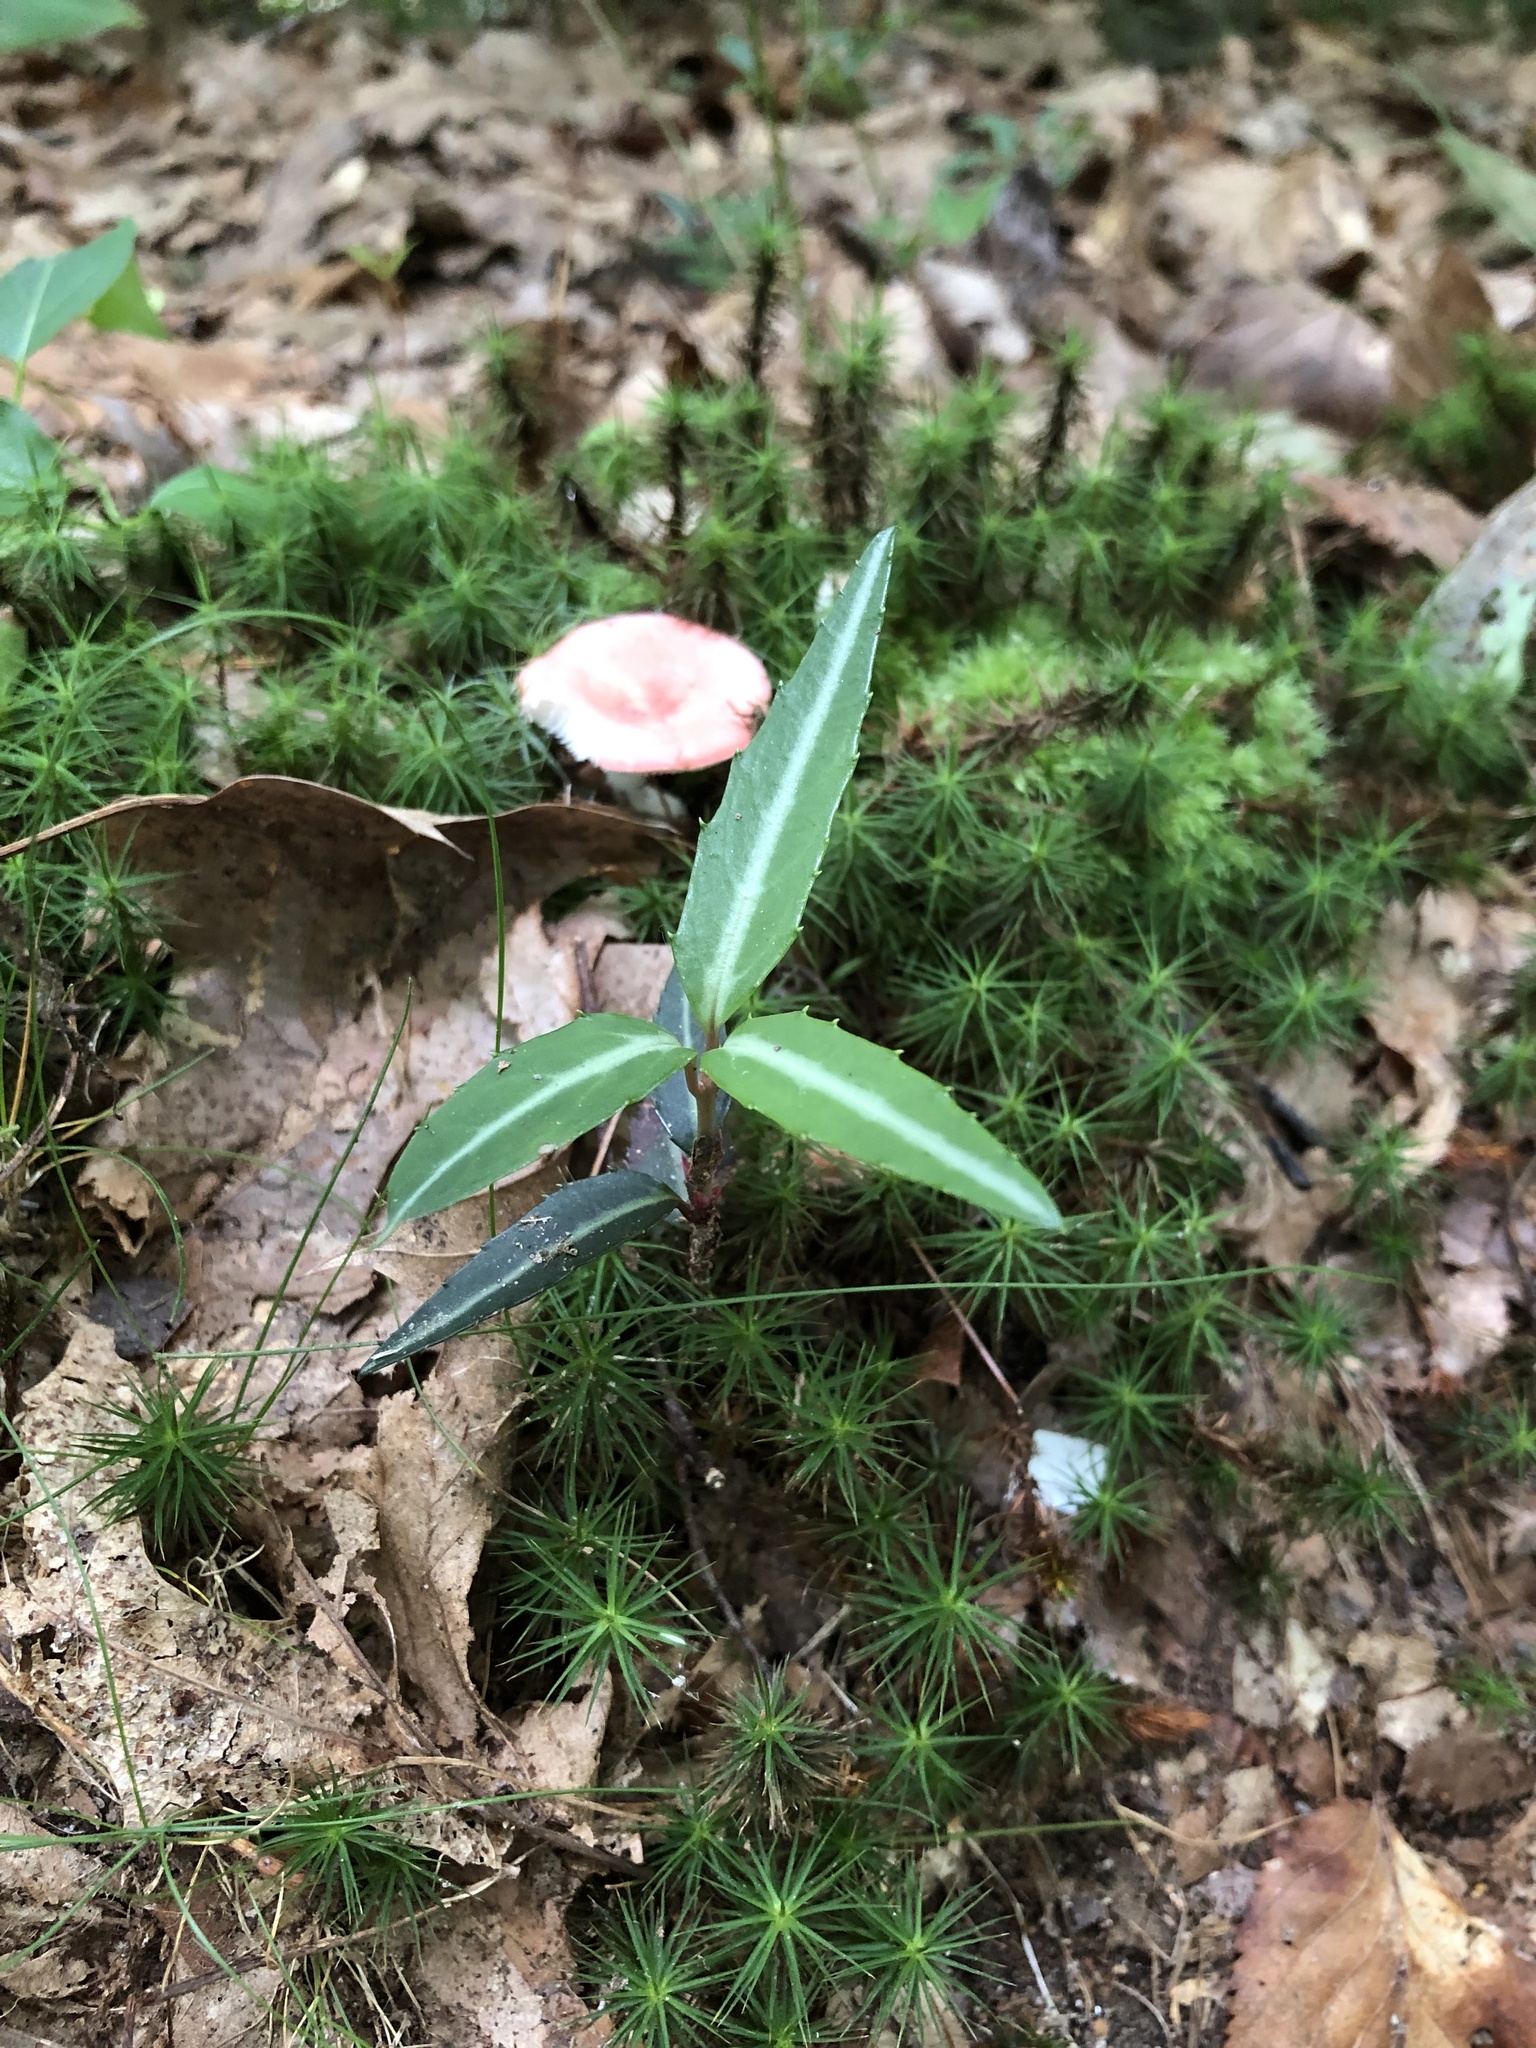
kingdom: Plantae
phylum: Tracheophyta
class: Magnoliopsida
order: Ericales
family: Ericaceae
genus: Chimaphila
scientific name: Chimaphila maculata
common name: Spotted pipsissewa
